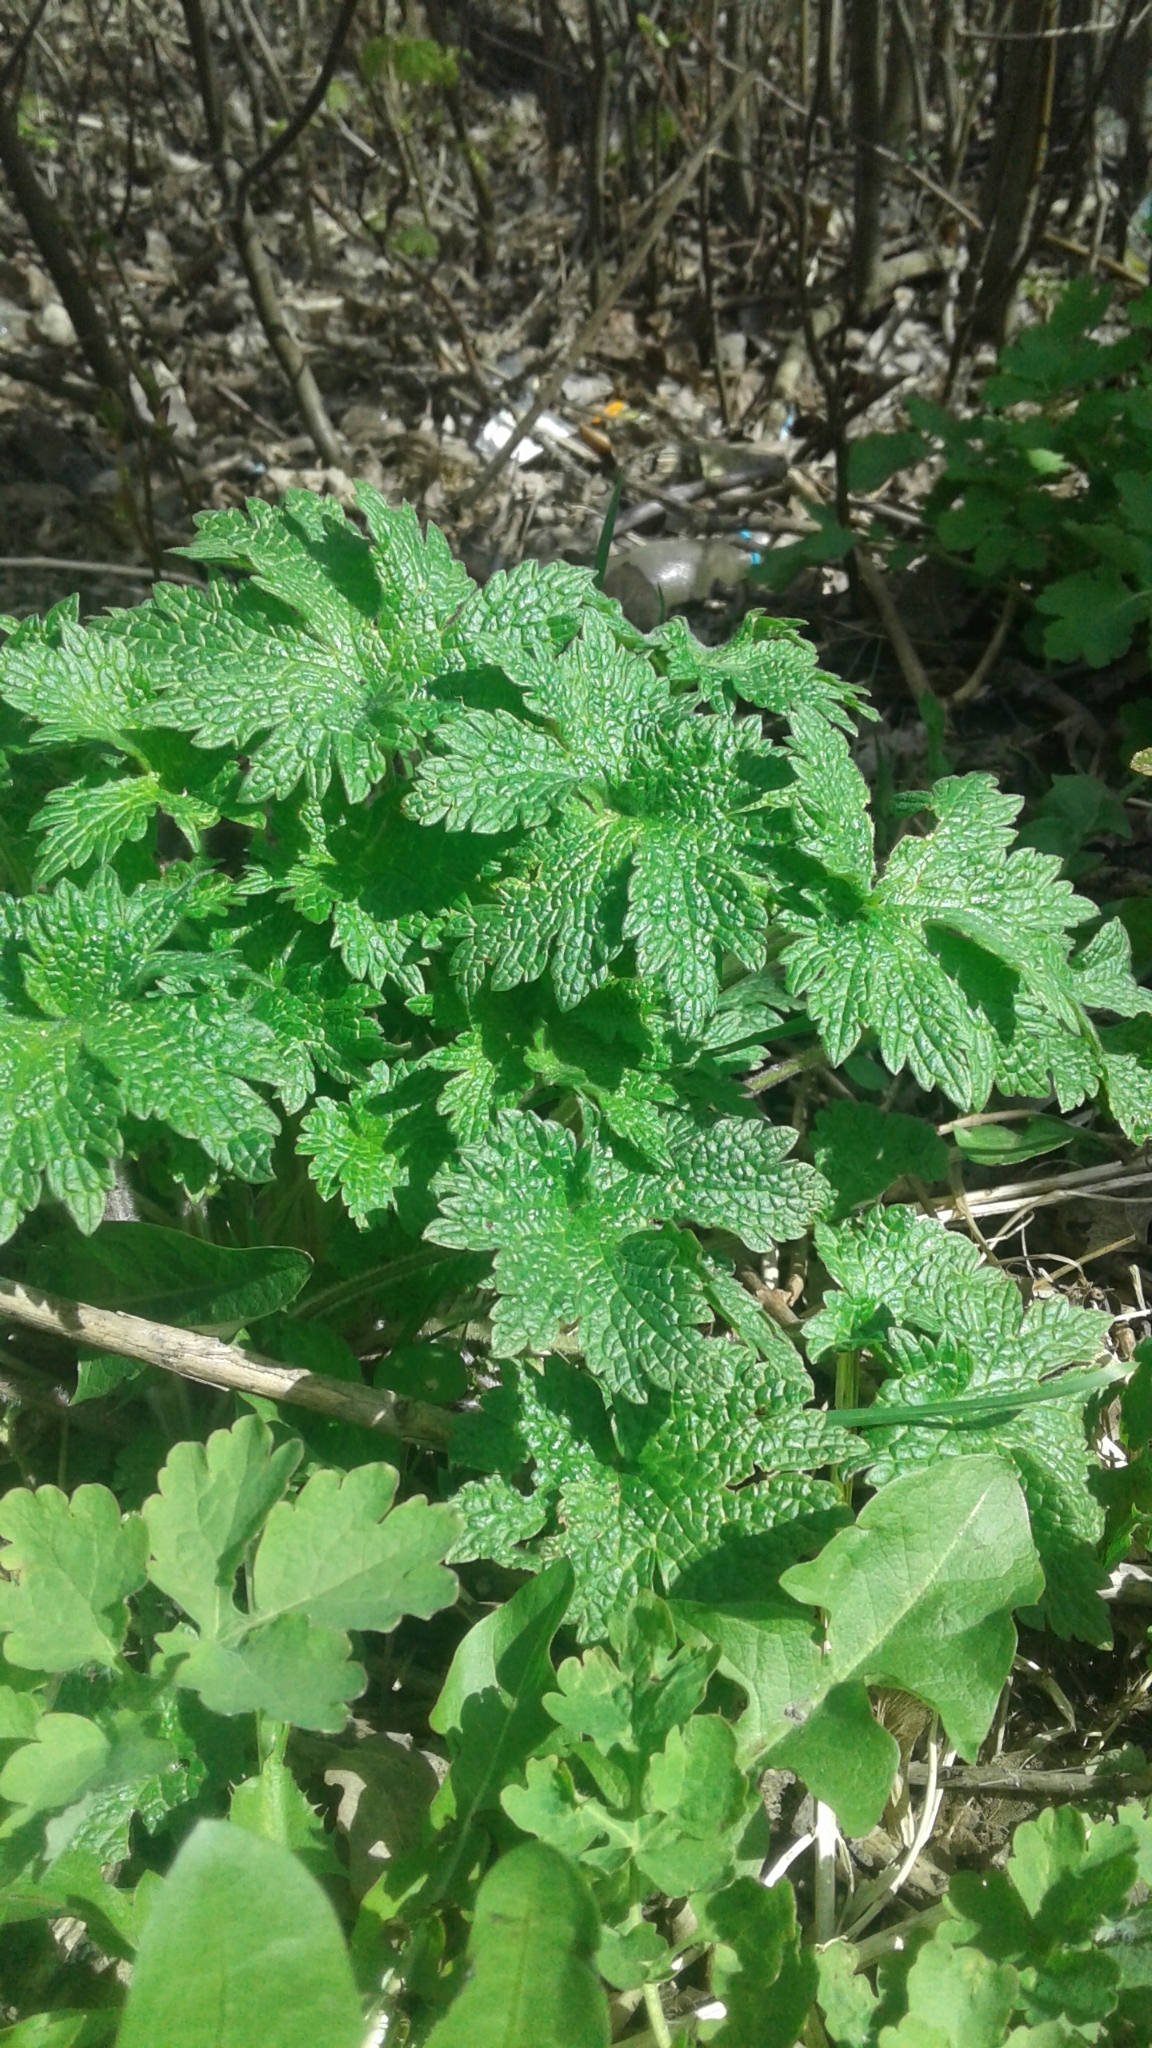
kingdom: Plantae
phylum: Tracheophyta
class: Magnoliopsida
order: Lamiales
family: Lamiaceae
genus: Leonurus
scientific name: Leonurus quinquelobatus
